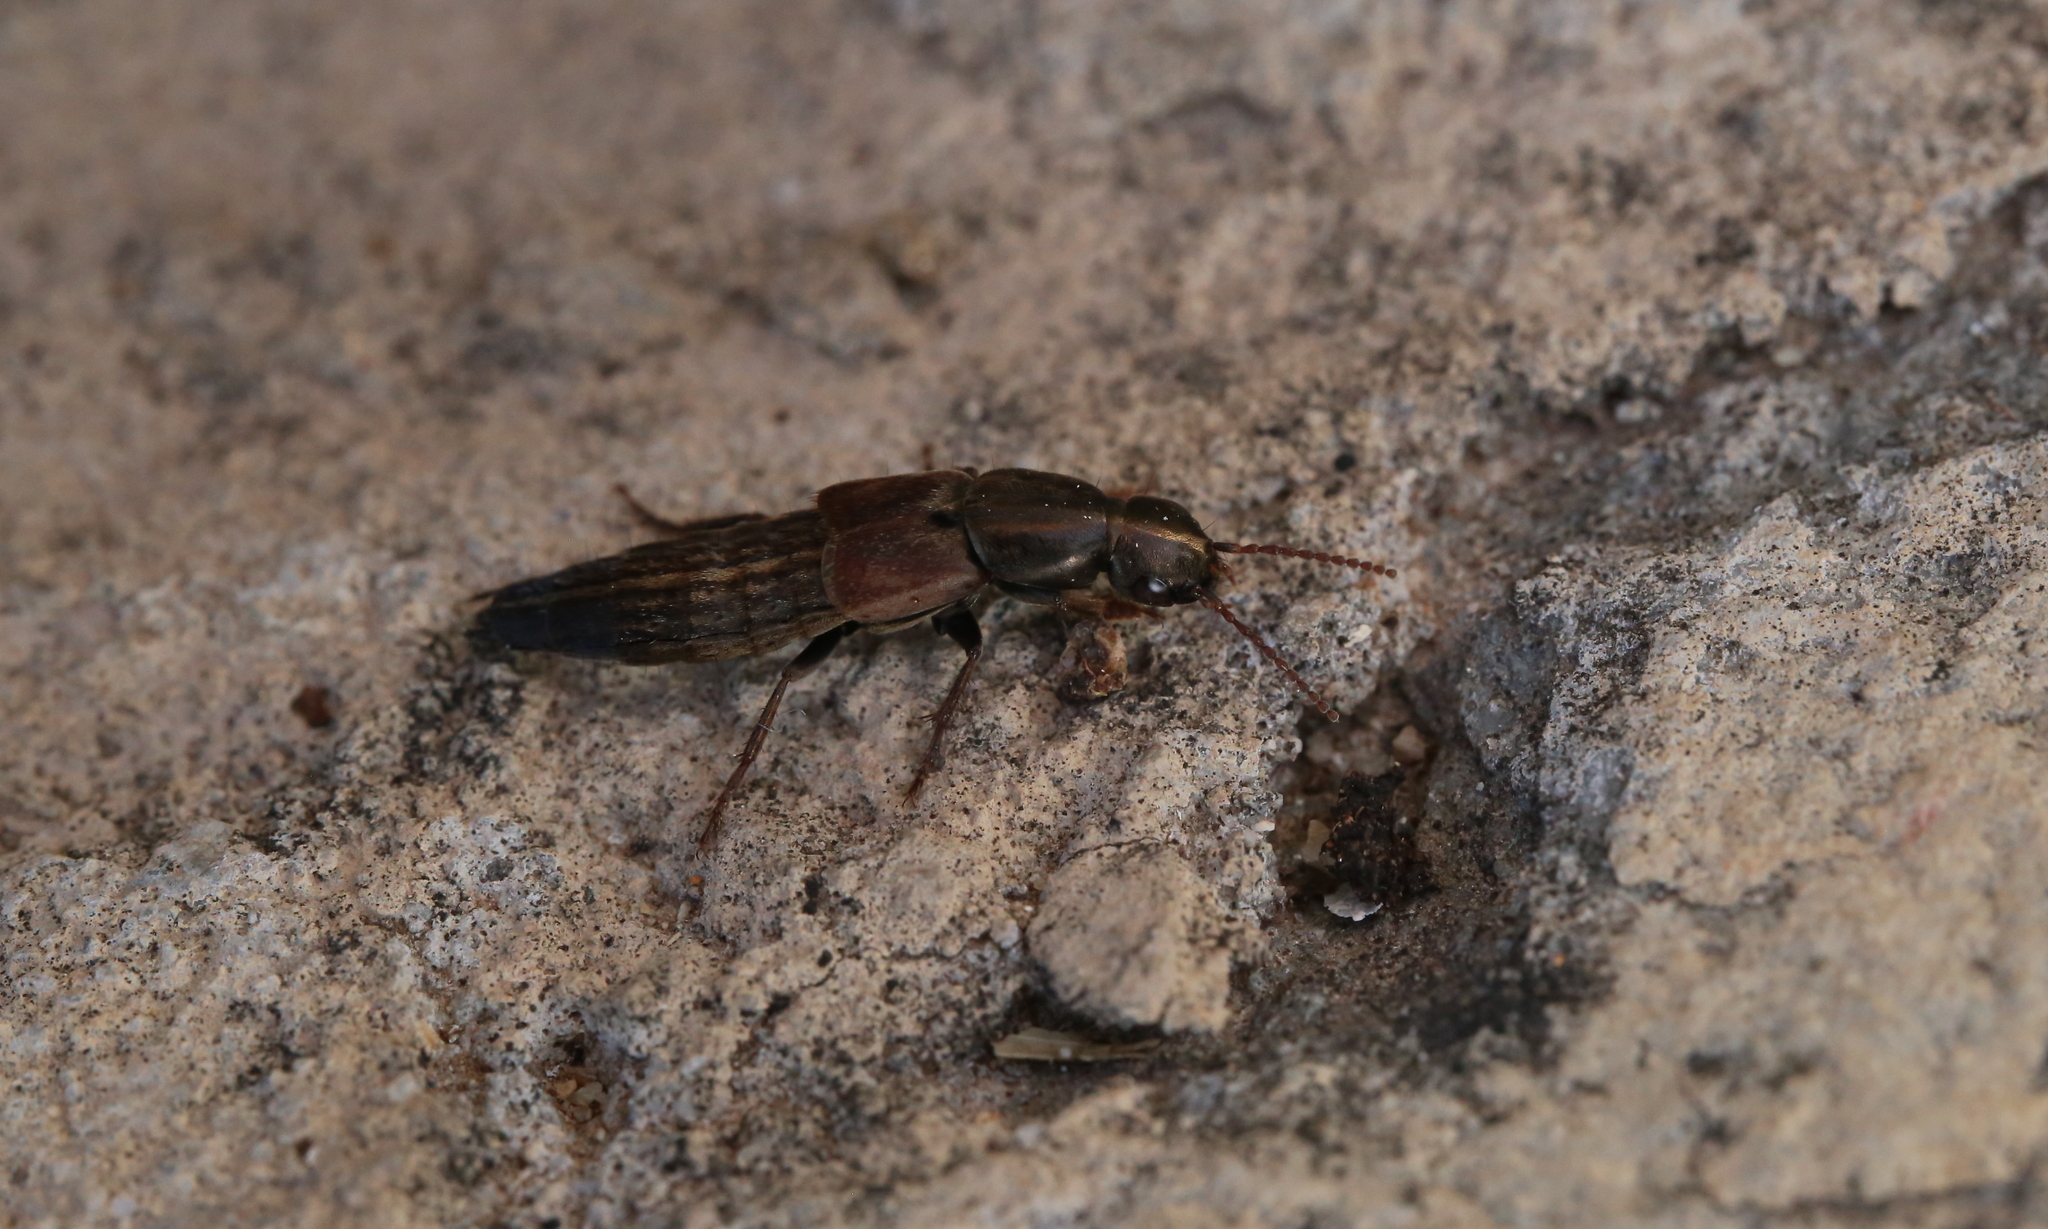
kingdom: Animalia
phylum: Arthropoda
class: Insecta
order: Coleoptera
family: Staphylinidae
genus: Ocypus
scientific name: Ocypus sericeicollis
